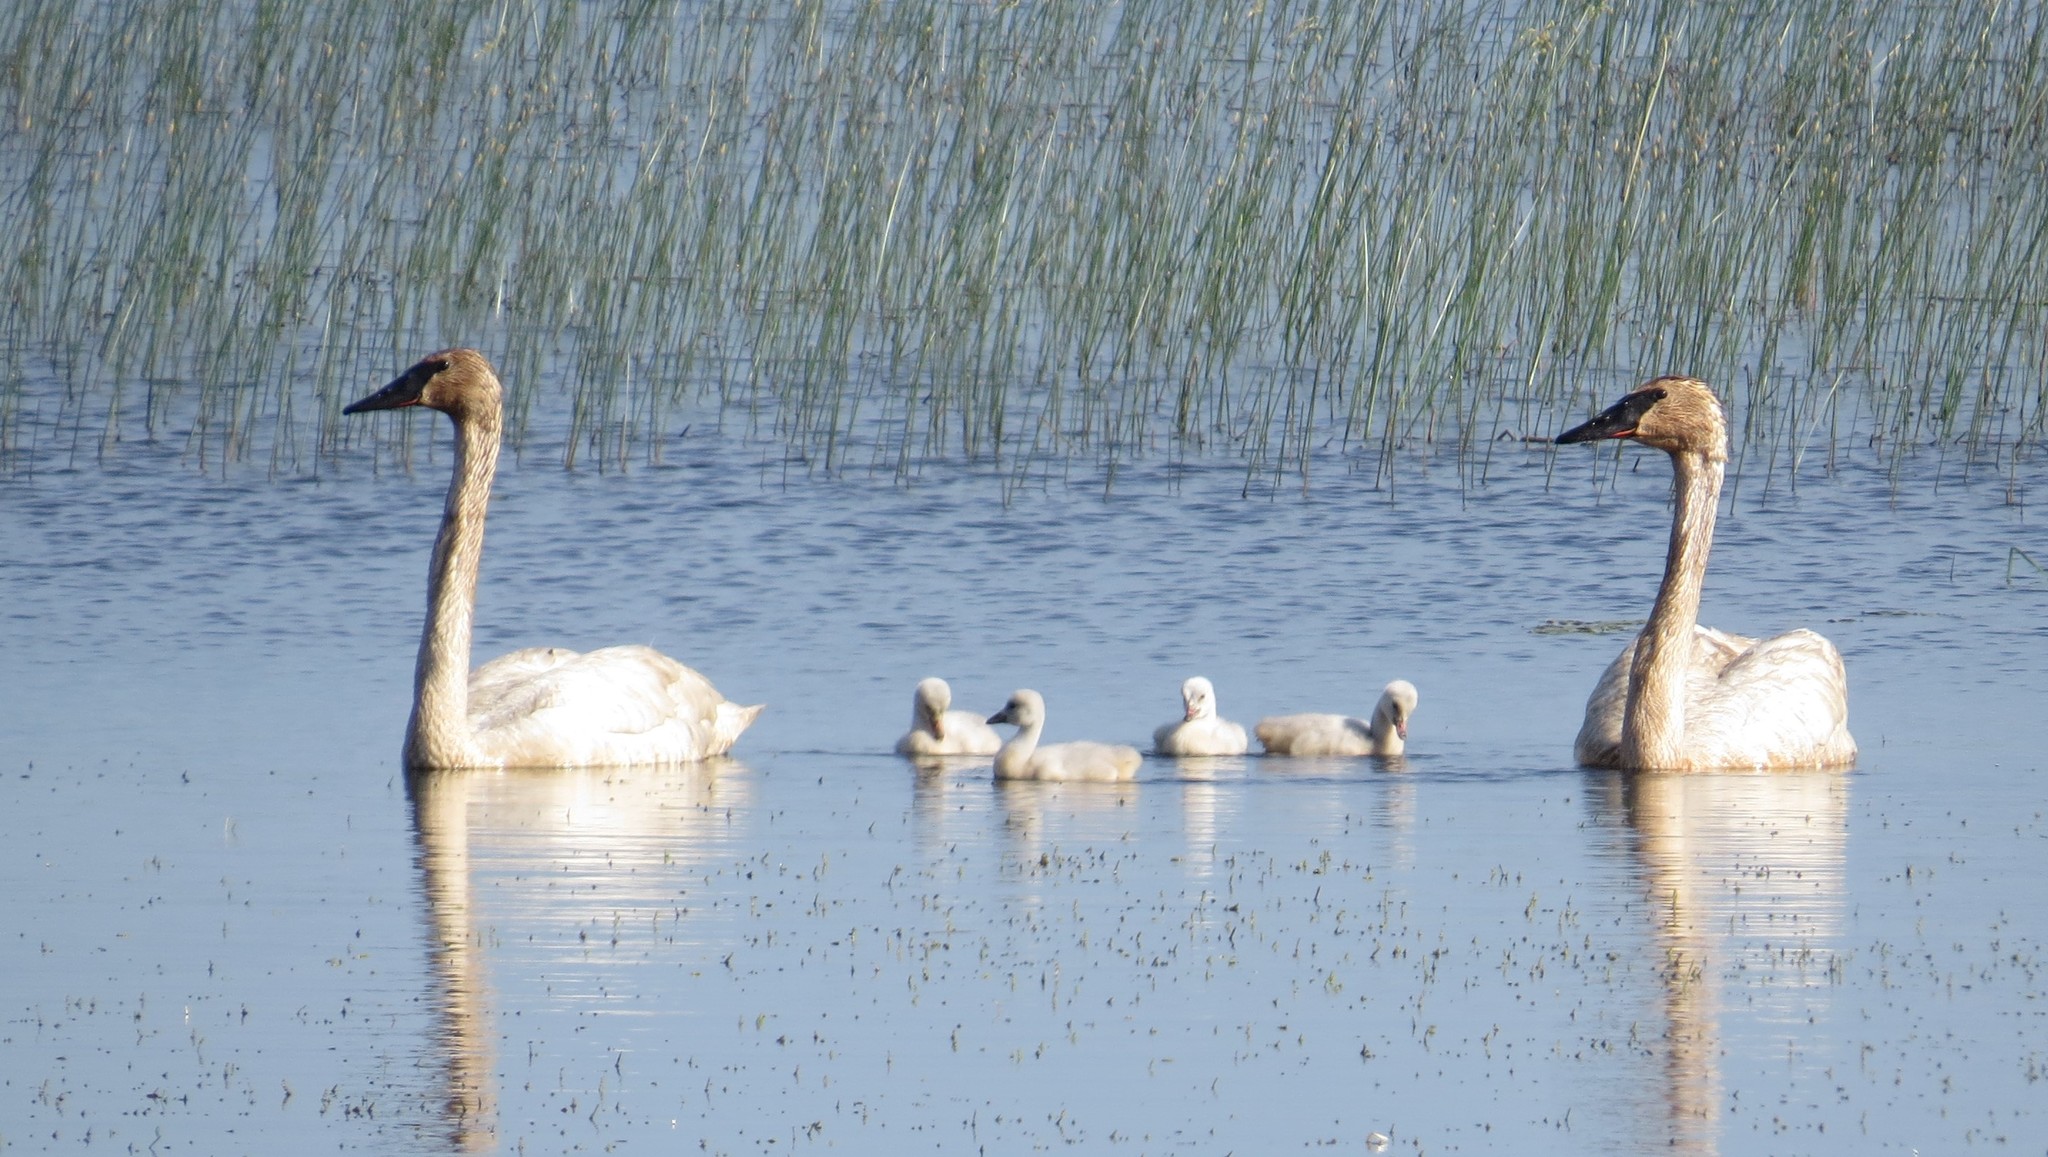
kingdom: Animalia
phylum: Chordata
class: Aves
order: Anseriformes
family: Anatidae
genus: Cygnus
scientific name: Cygnus buccinator
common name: Trumpeter swan
